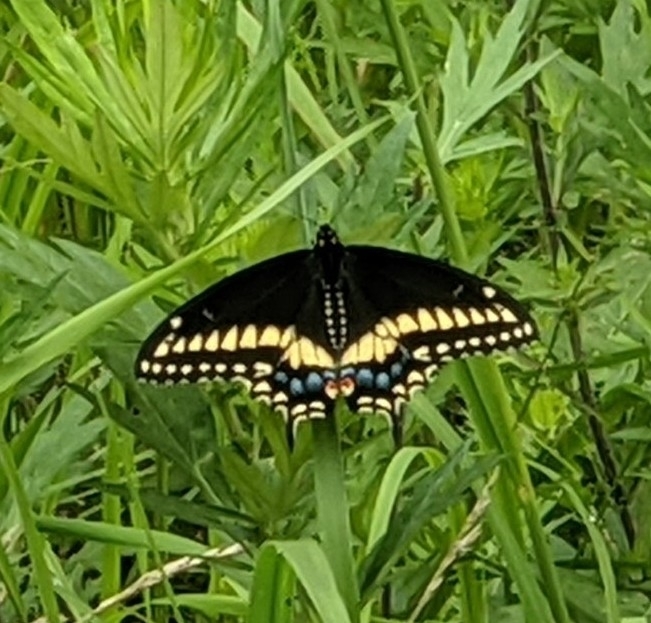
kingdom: Animalia
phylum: Arthropoda
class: Insecta
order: Lepidoptera
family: Papilionidae
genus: Papilio
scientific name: Papilio polyxenes
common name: Black swallowtail
